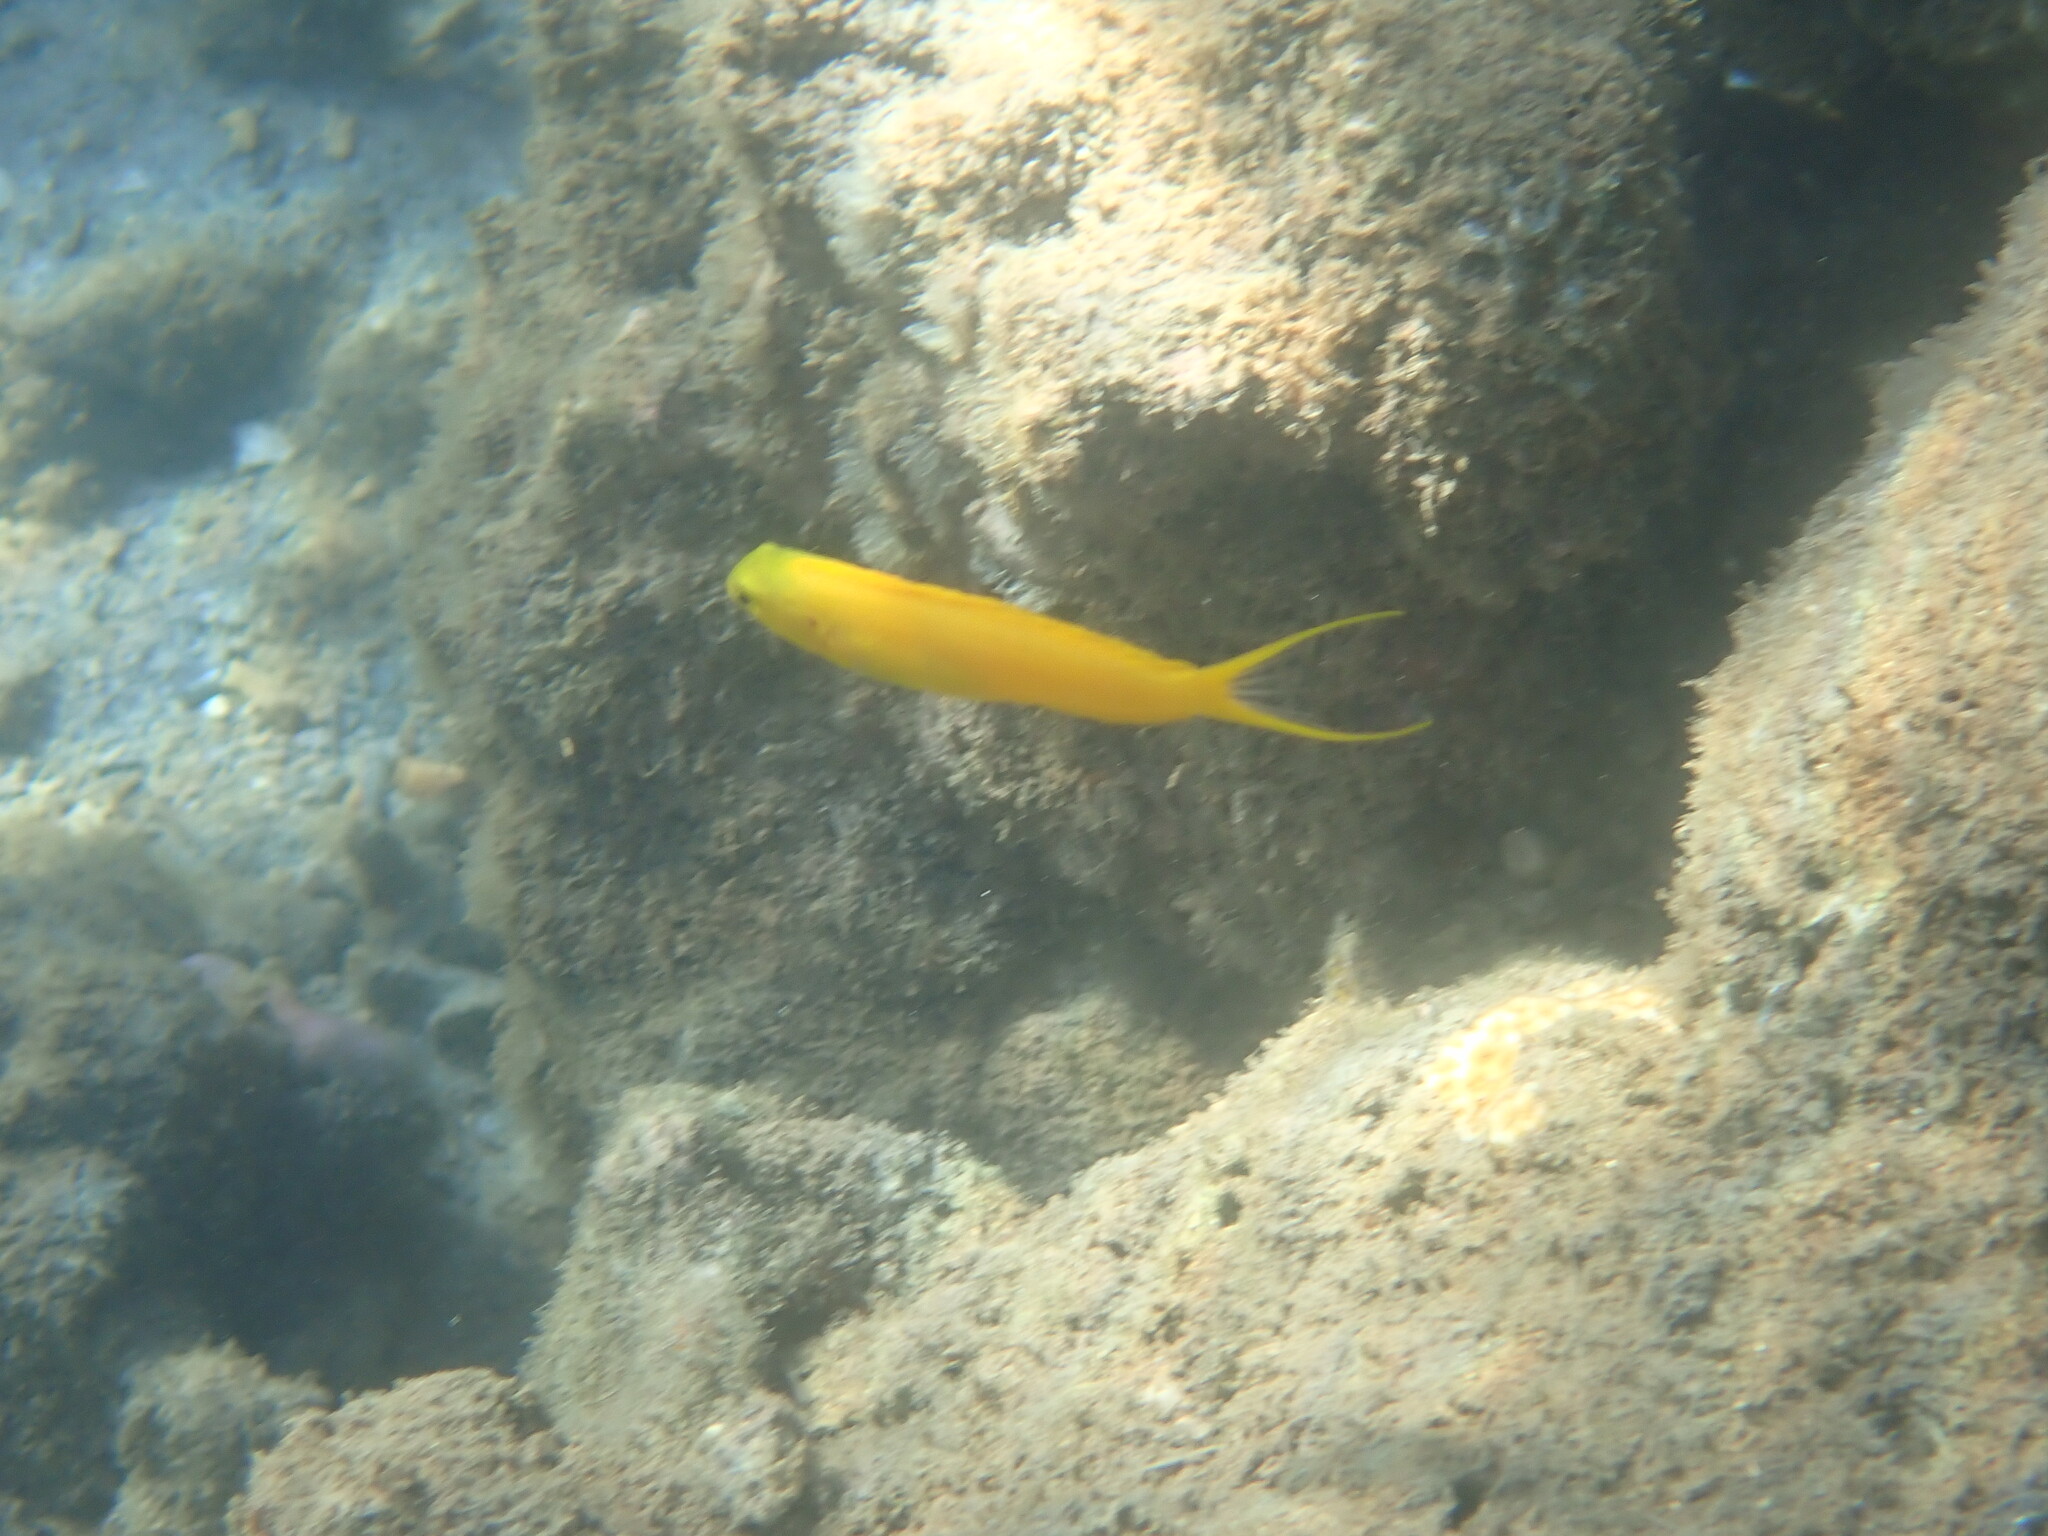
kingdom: Animalia
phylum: Chordata
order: Perciformes
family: Blenniidae
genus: Meiacanthus
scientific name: Meiacanthus oualanensis
